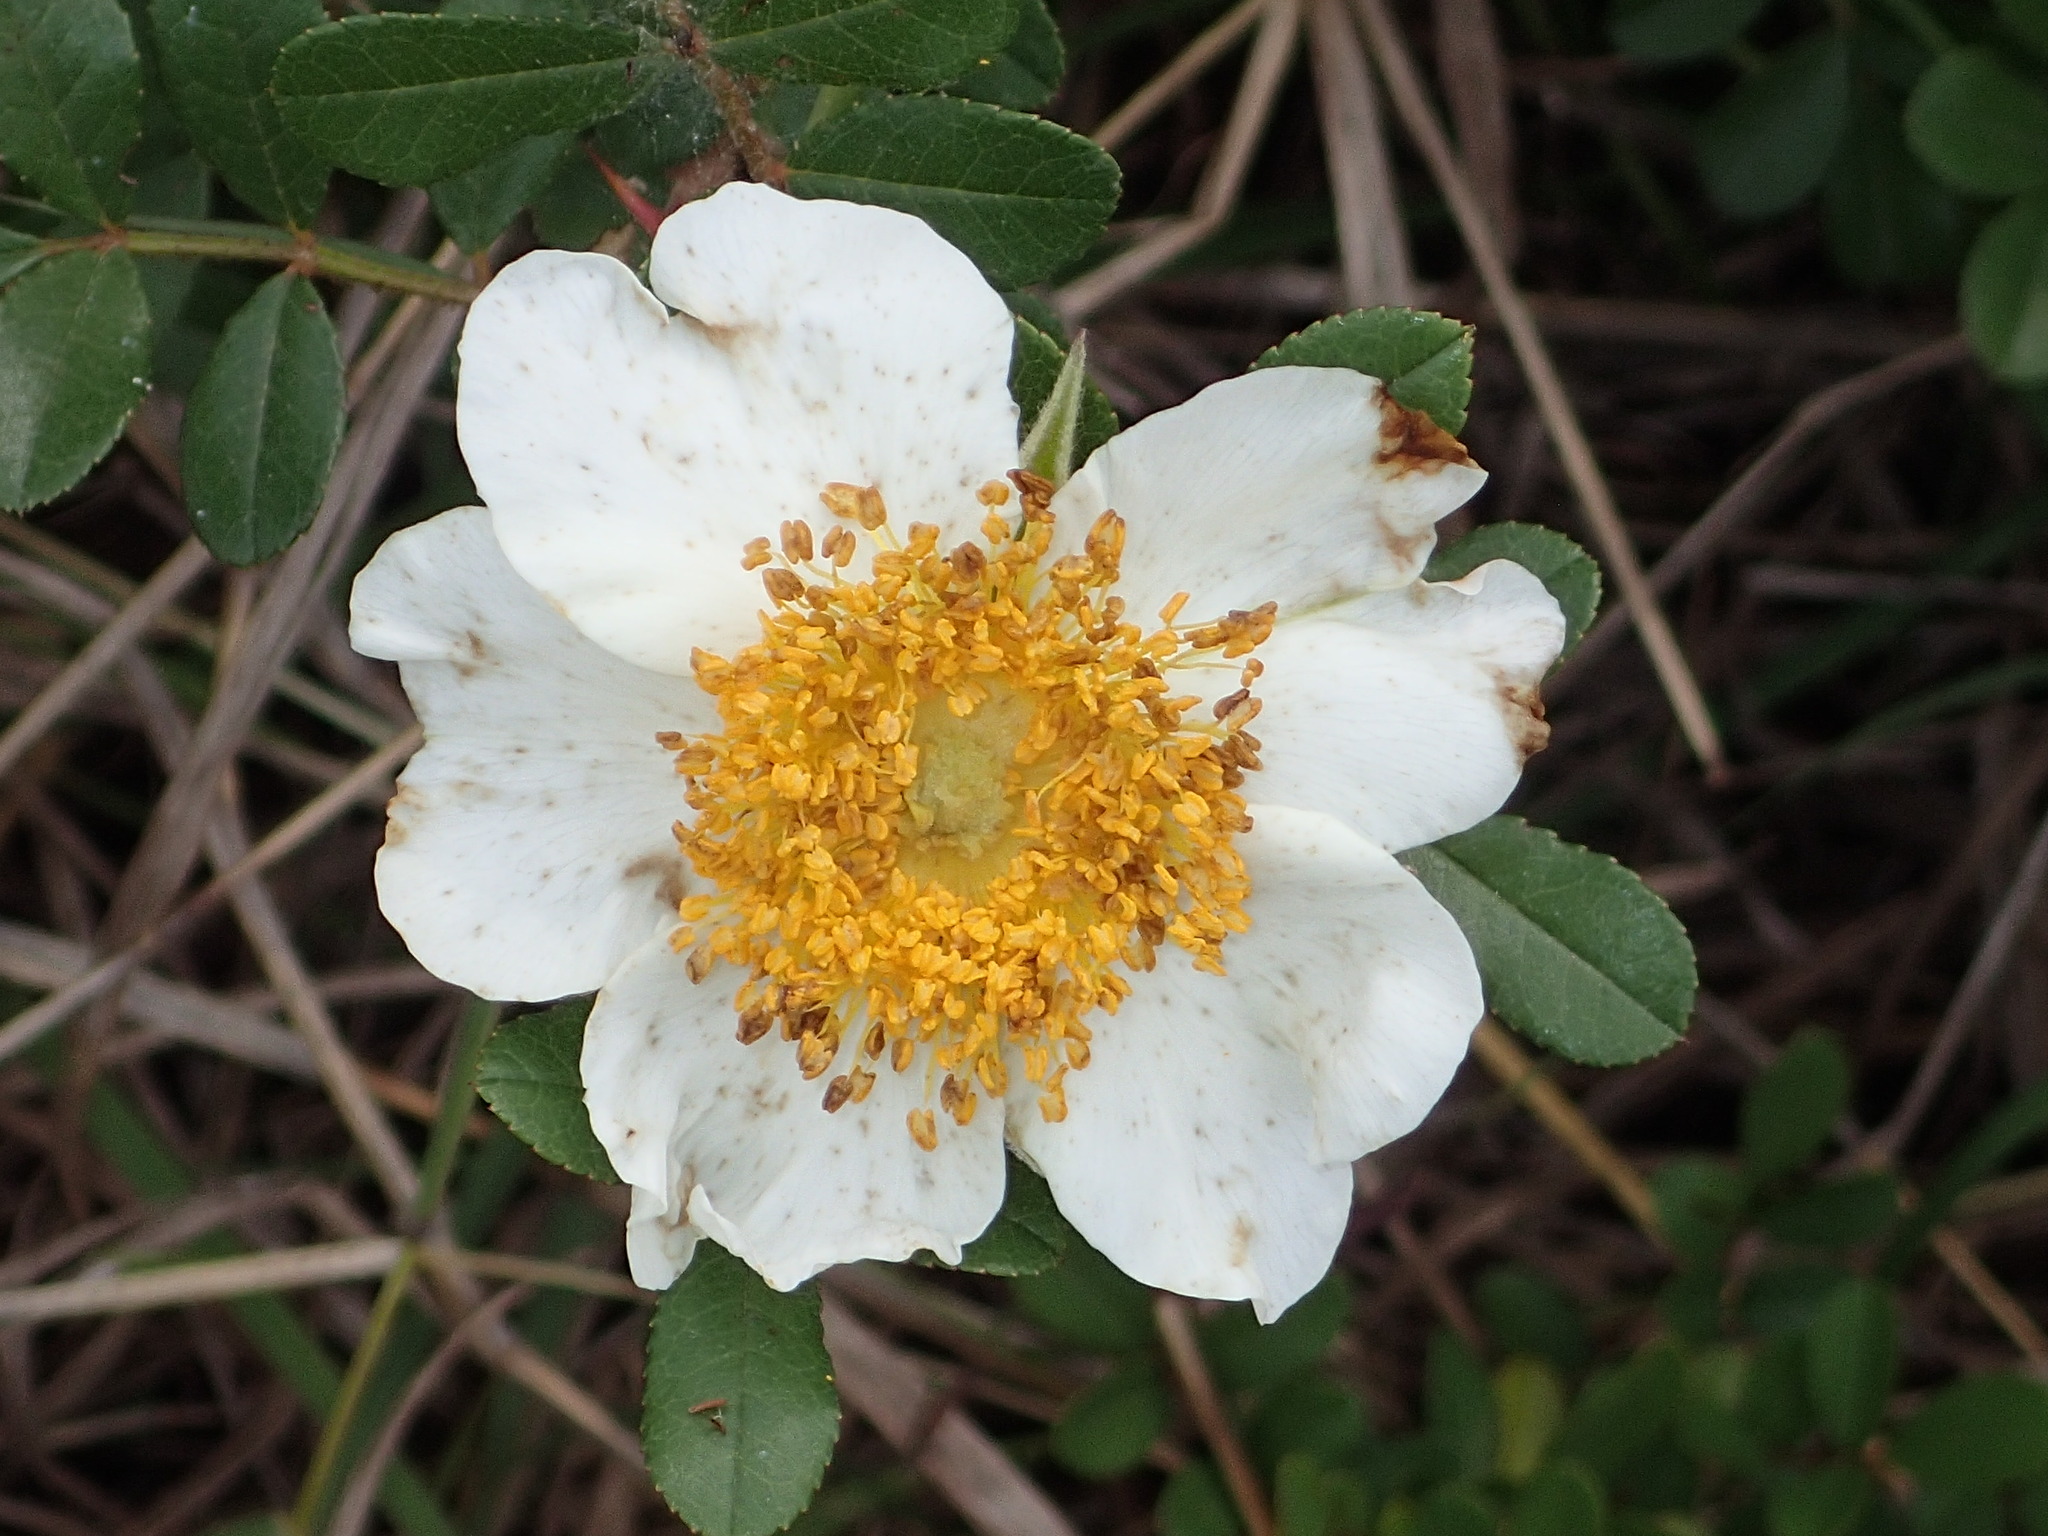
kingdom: Plantae
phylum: Tracheophyta
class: Magnoliopsida
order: Rosales
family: Rosaceae
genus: Rosa
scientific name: Rosa bracteata
